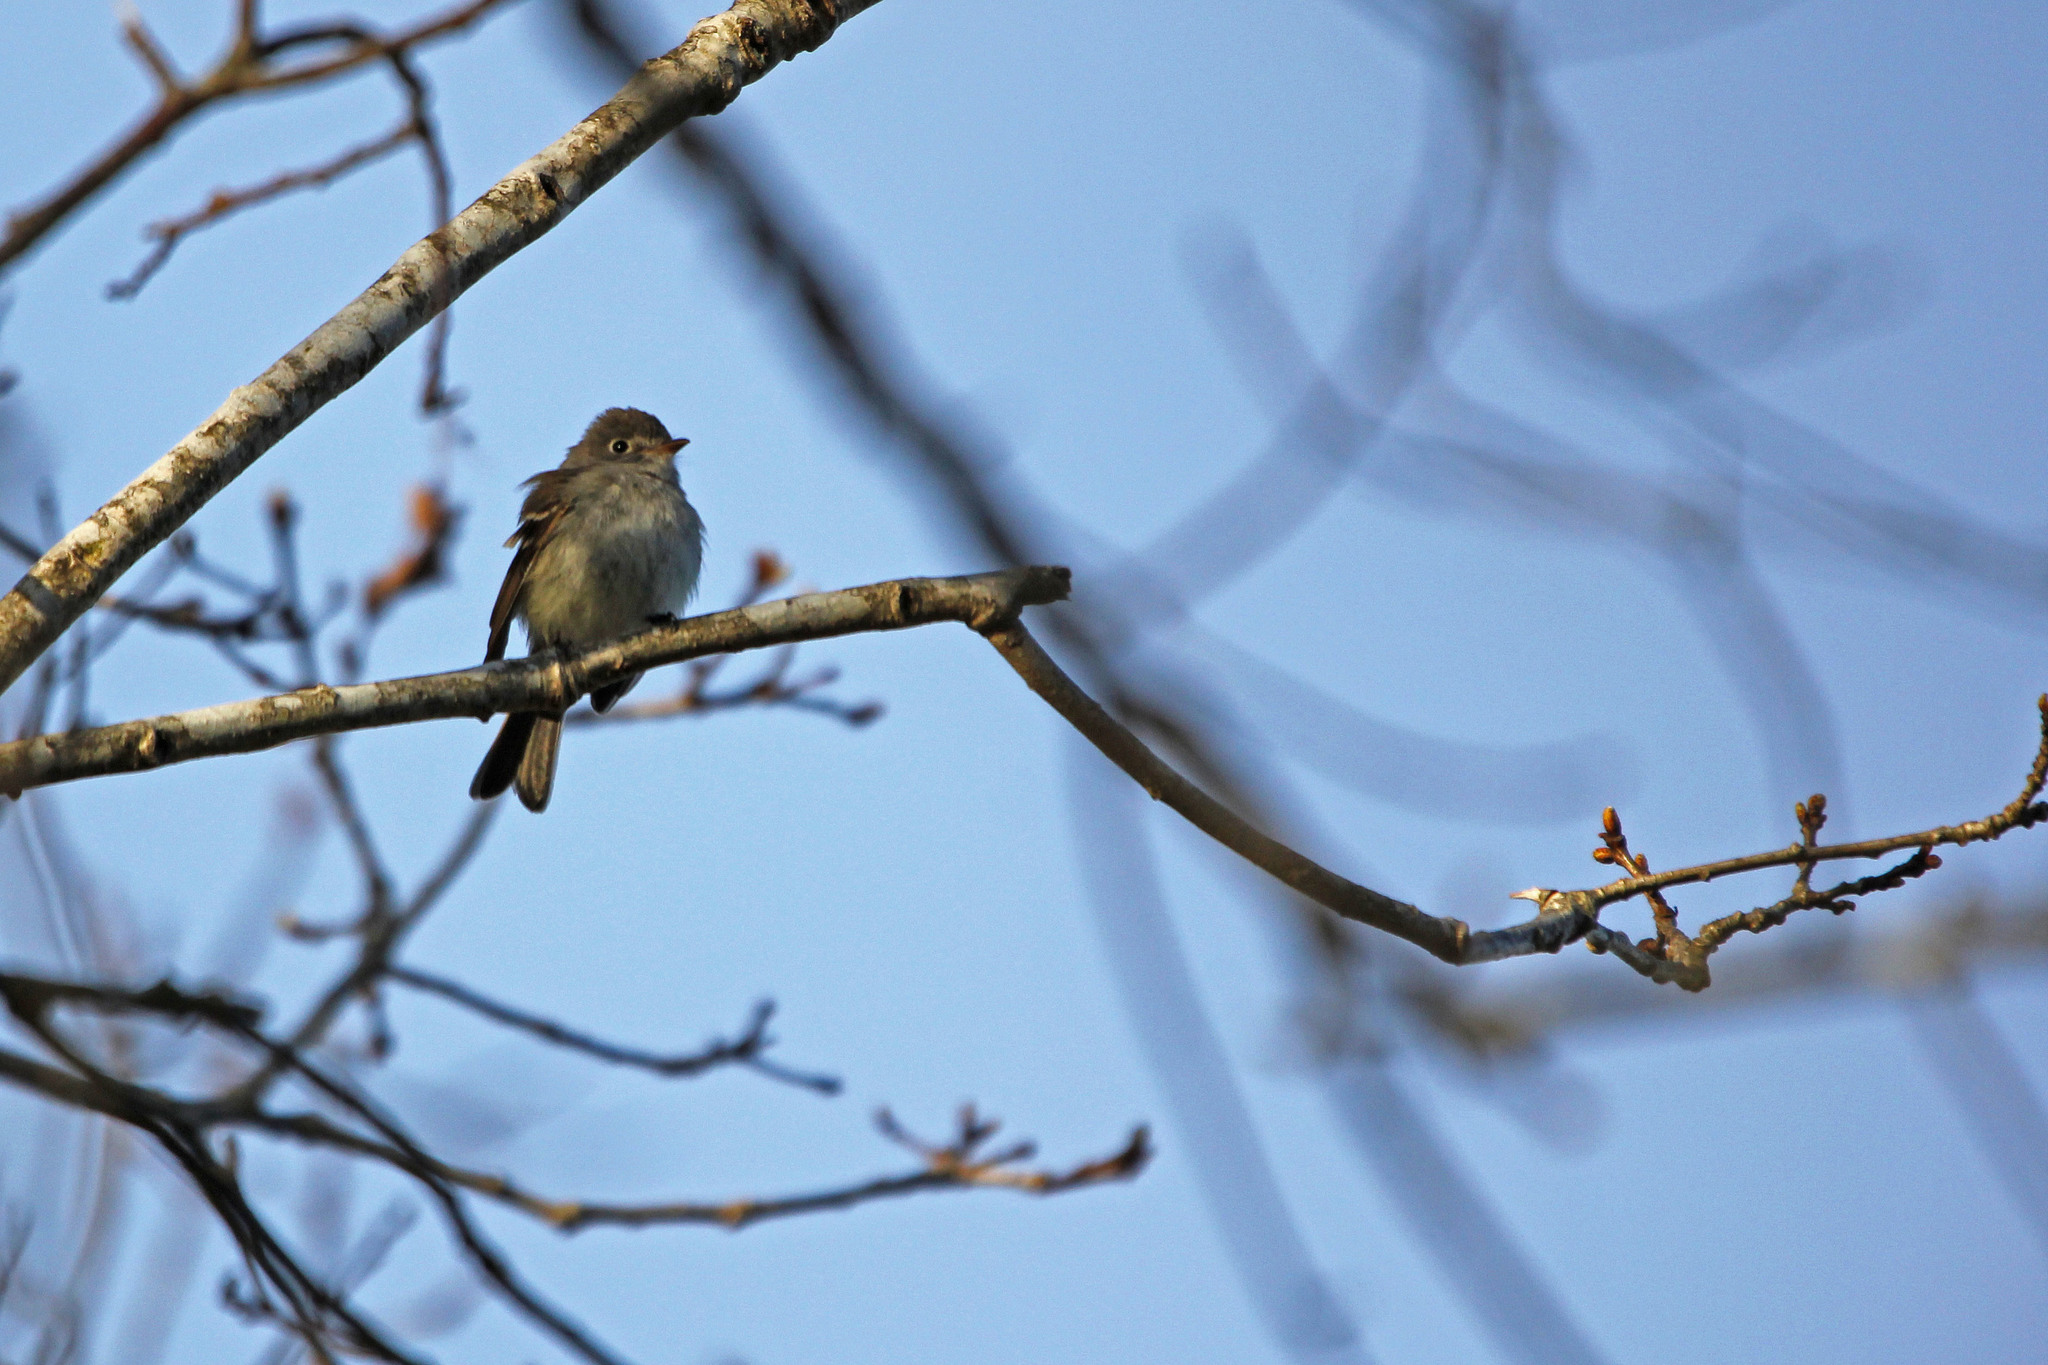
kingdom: Animalia
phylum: Chordata
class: Aves
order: Passeriformes
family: Tyrannidae
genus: Empidonax
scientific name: Empidonax minimus
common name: Least flycatcher
